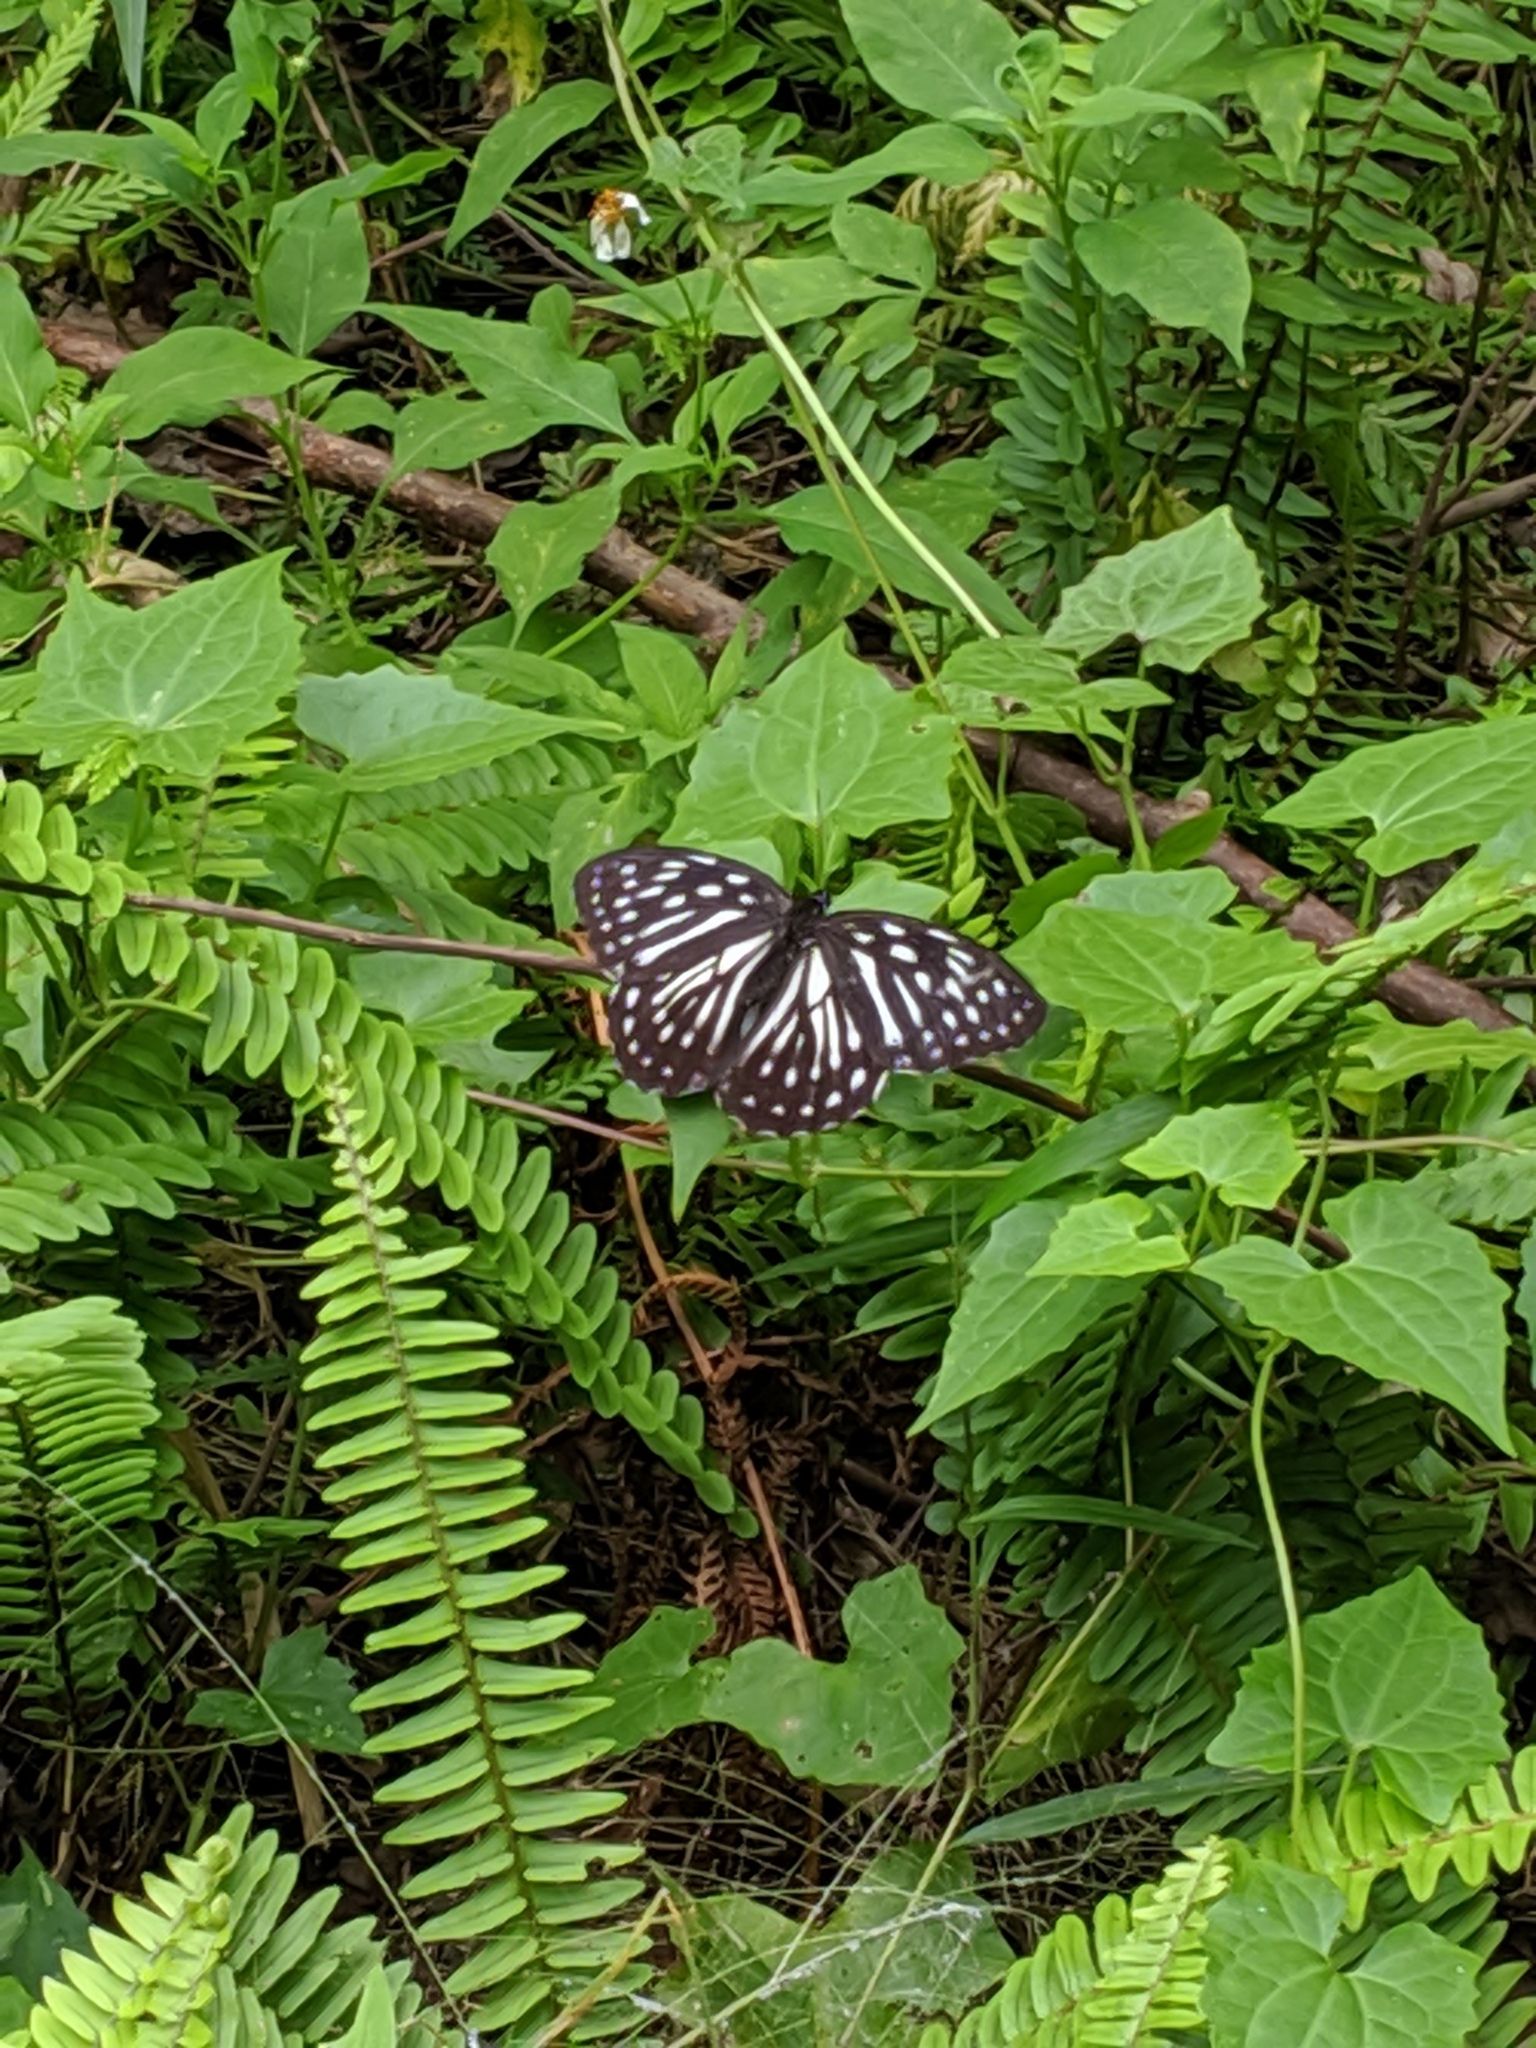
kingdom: Animalia
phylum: Arthropoda
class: Insecta
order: Lepidoptera
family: Nymphalidae
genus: Penthema
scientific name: Penthema formosanum
